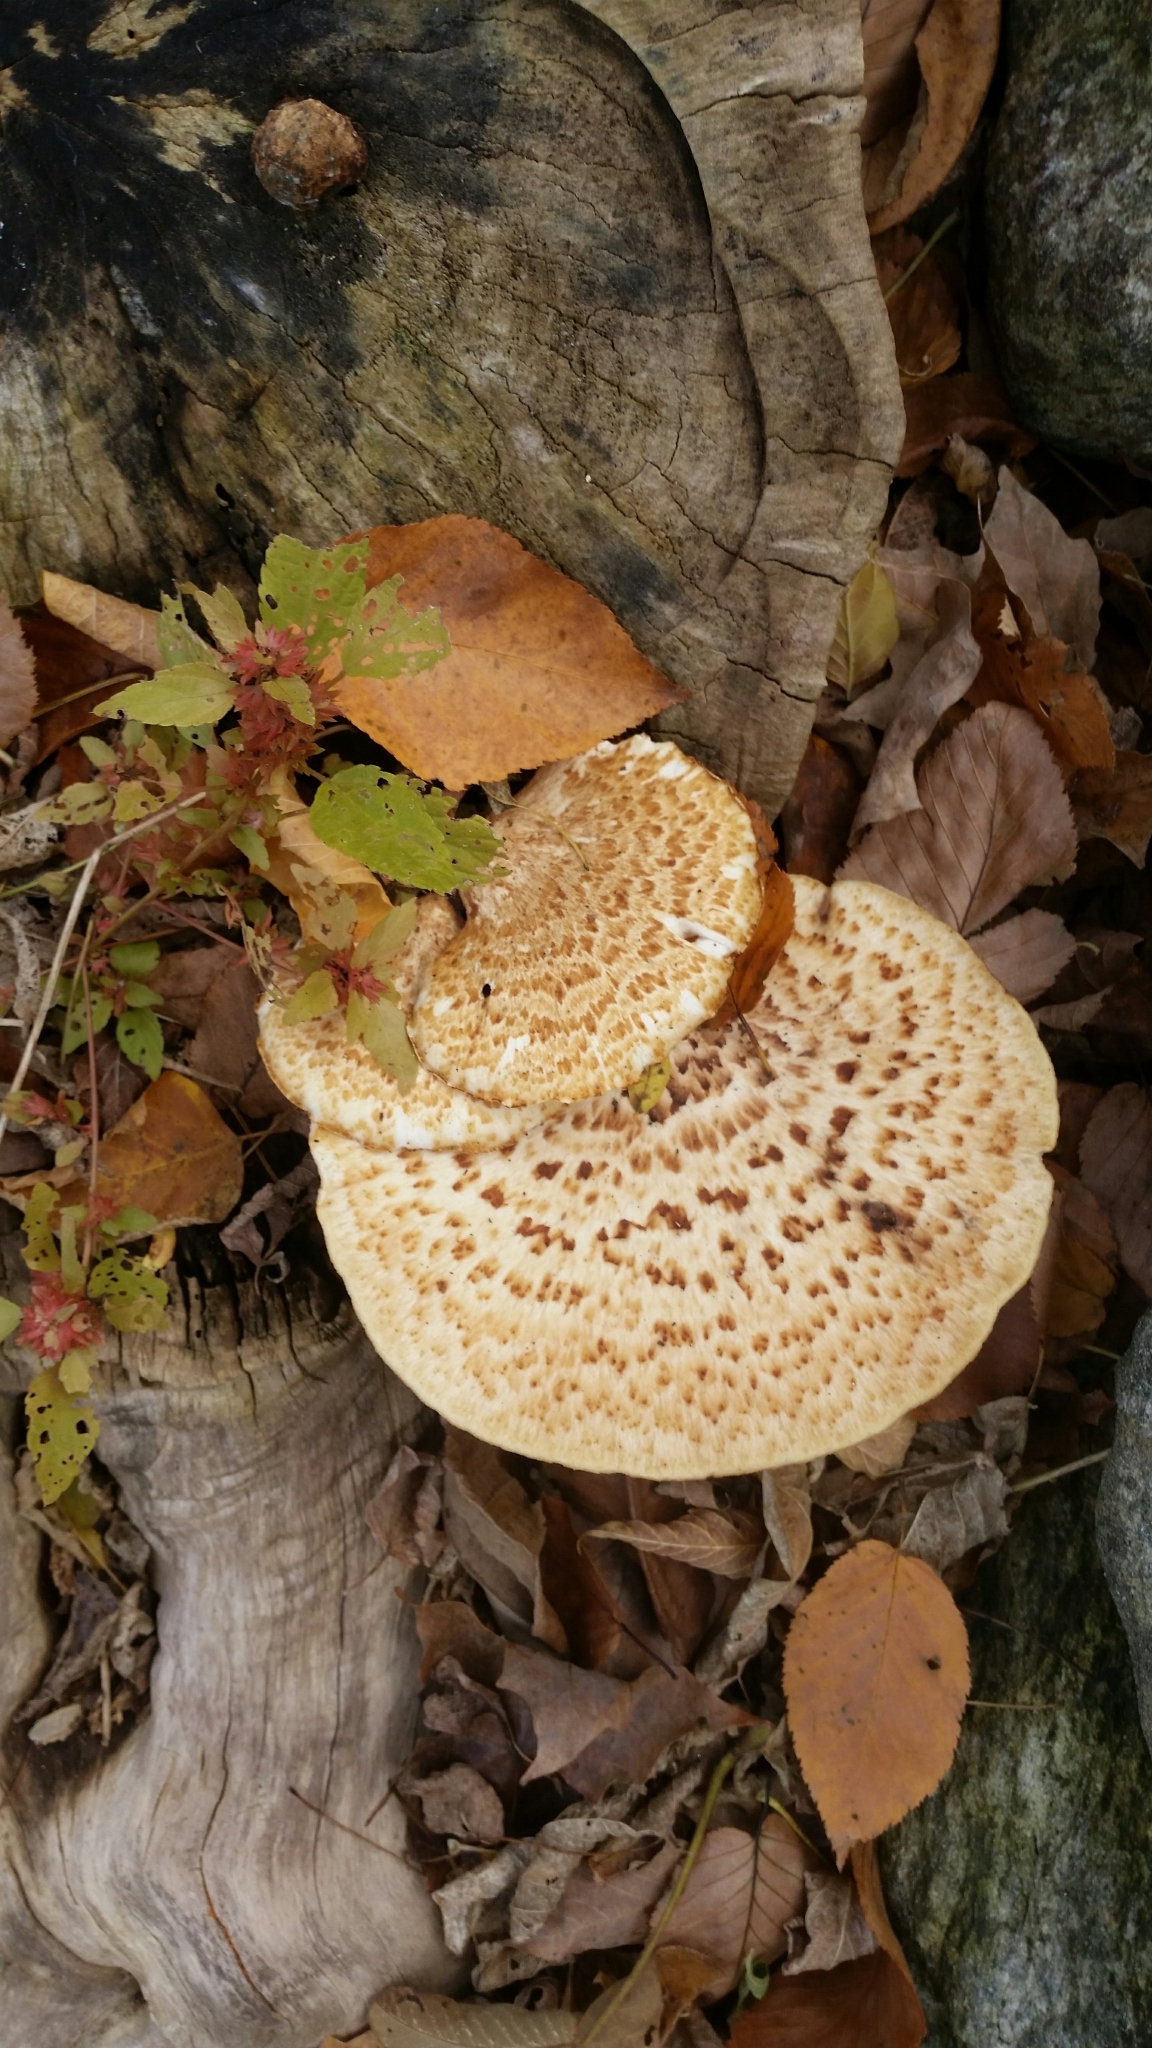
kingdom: Fungi
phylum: Basidiomycota
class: Agaricomycetes
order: Polyporales
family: Polyporaceae
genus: Cerioporus
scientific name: Cerioporus squamosus
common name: Dryad's saddle
